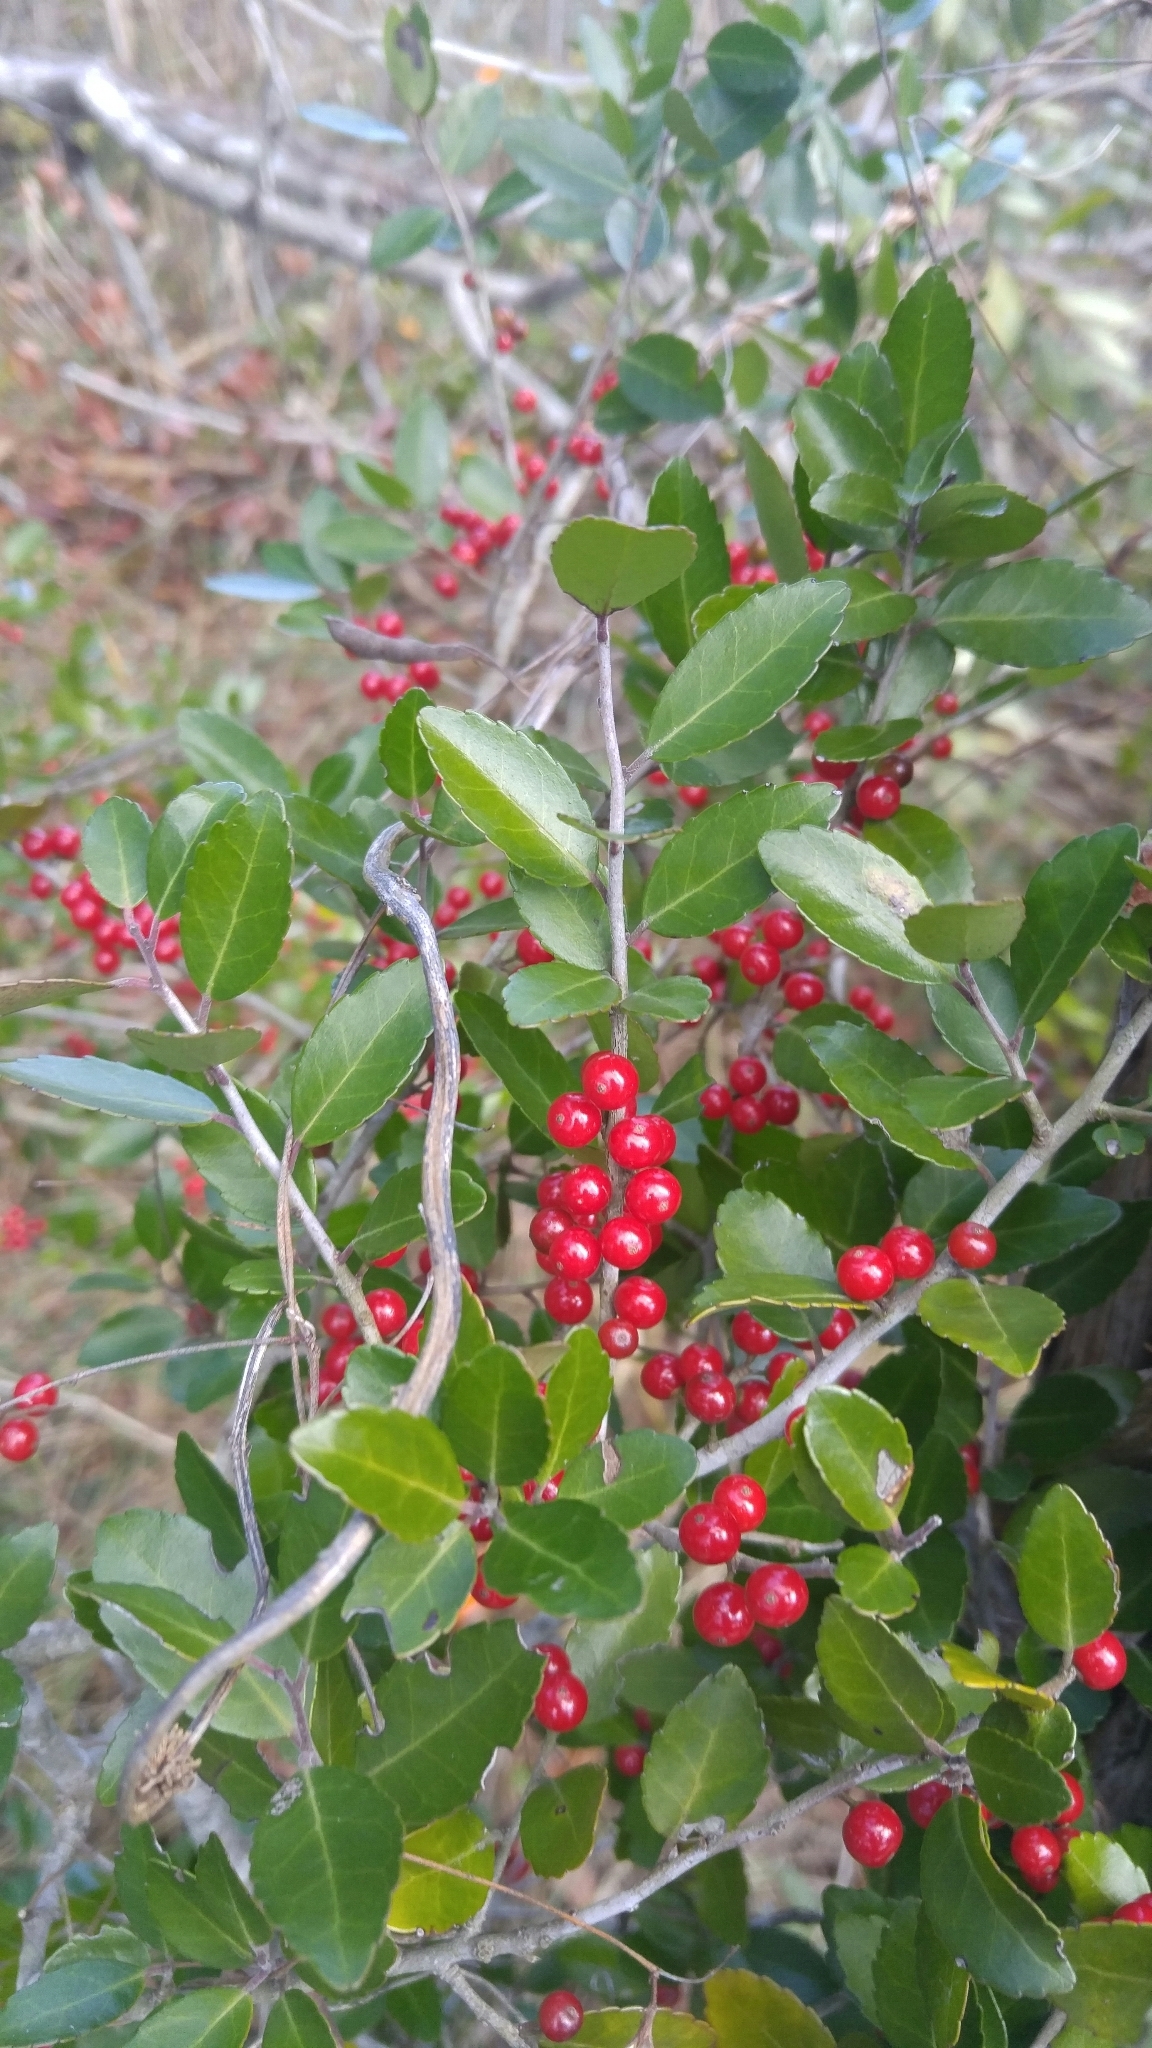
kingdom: Plantae
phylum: Tracheophyta
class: Magnoliopsida
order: Aquifoliales
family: Aquifoliaceae
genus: Ilex
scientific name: Ilex vomitoria
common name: Yaupon holly
